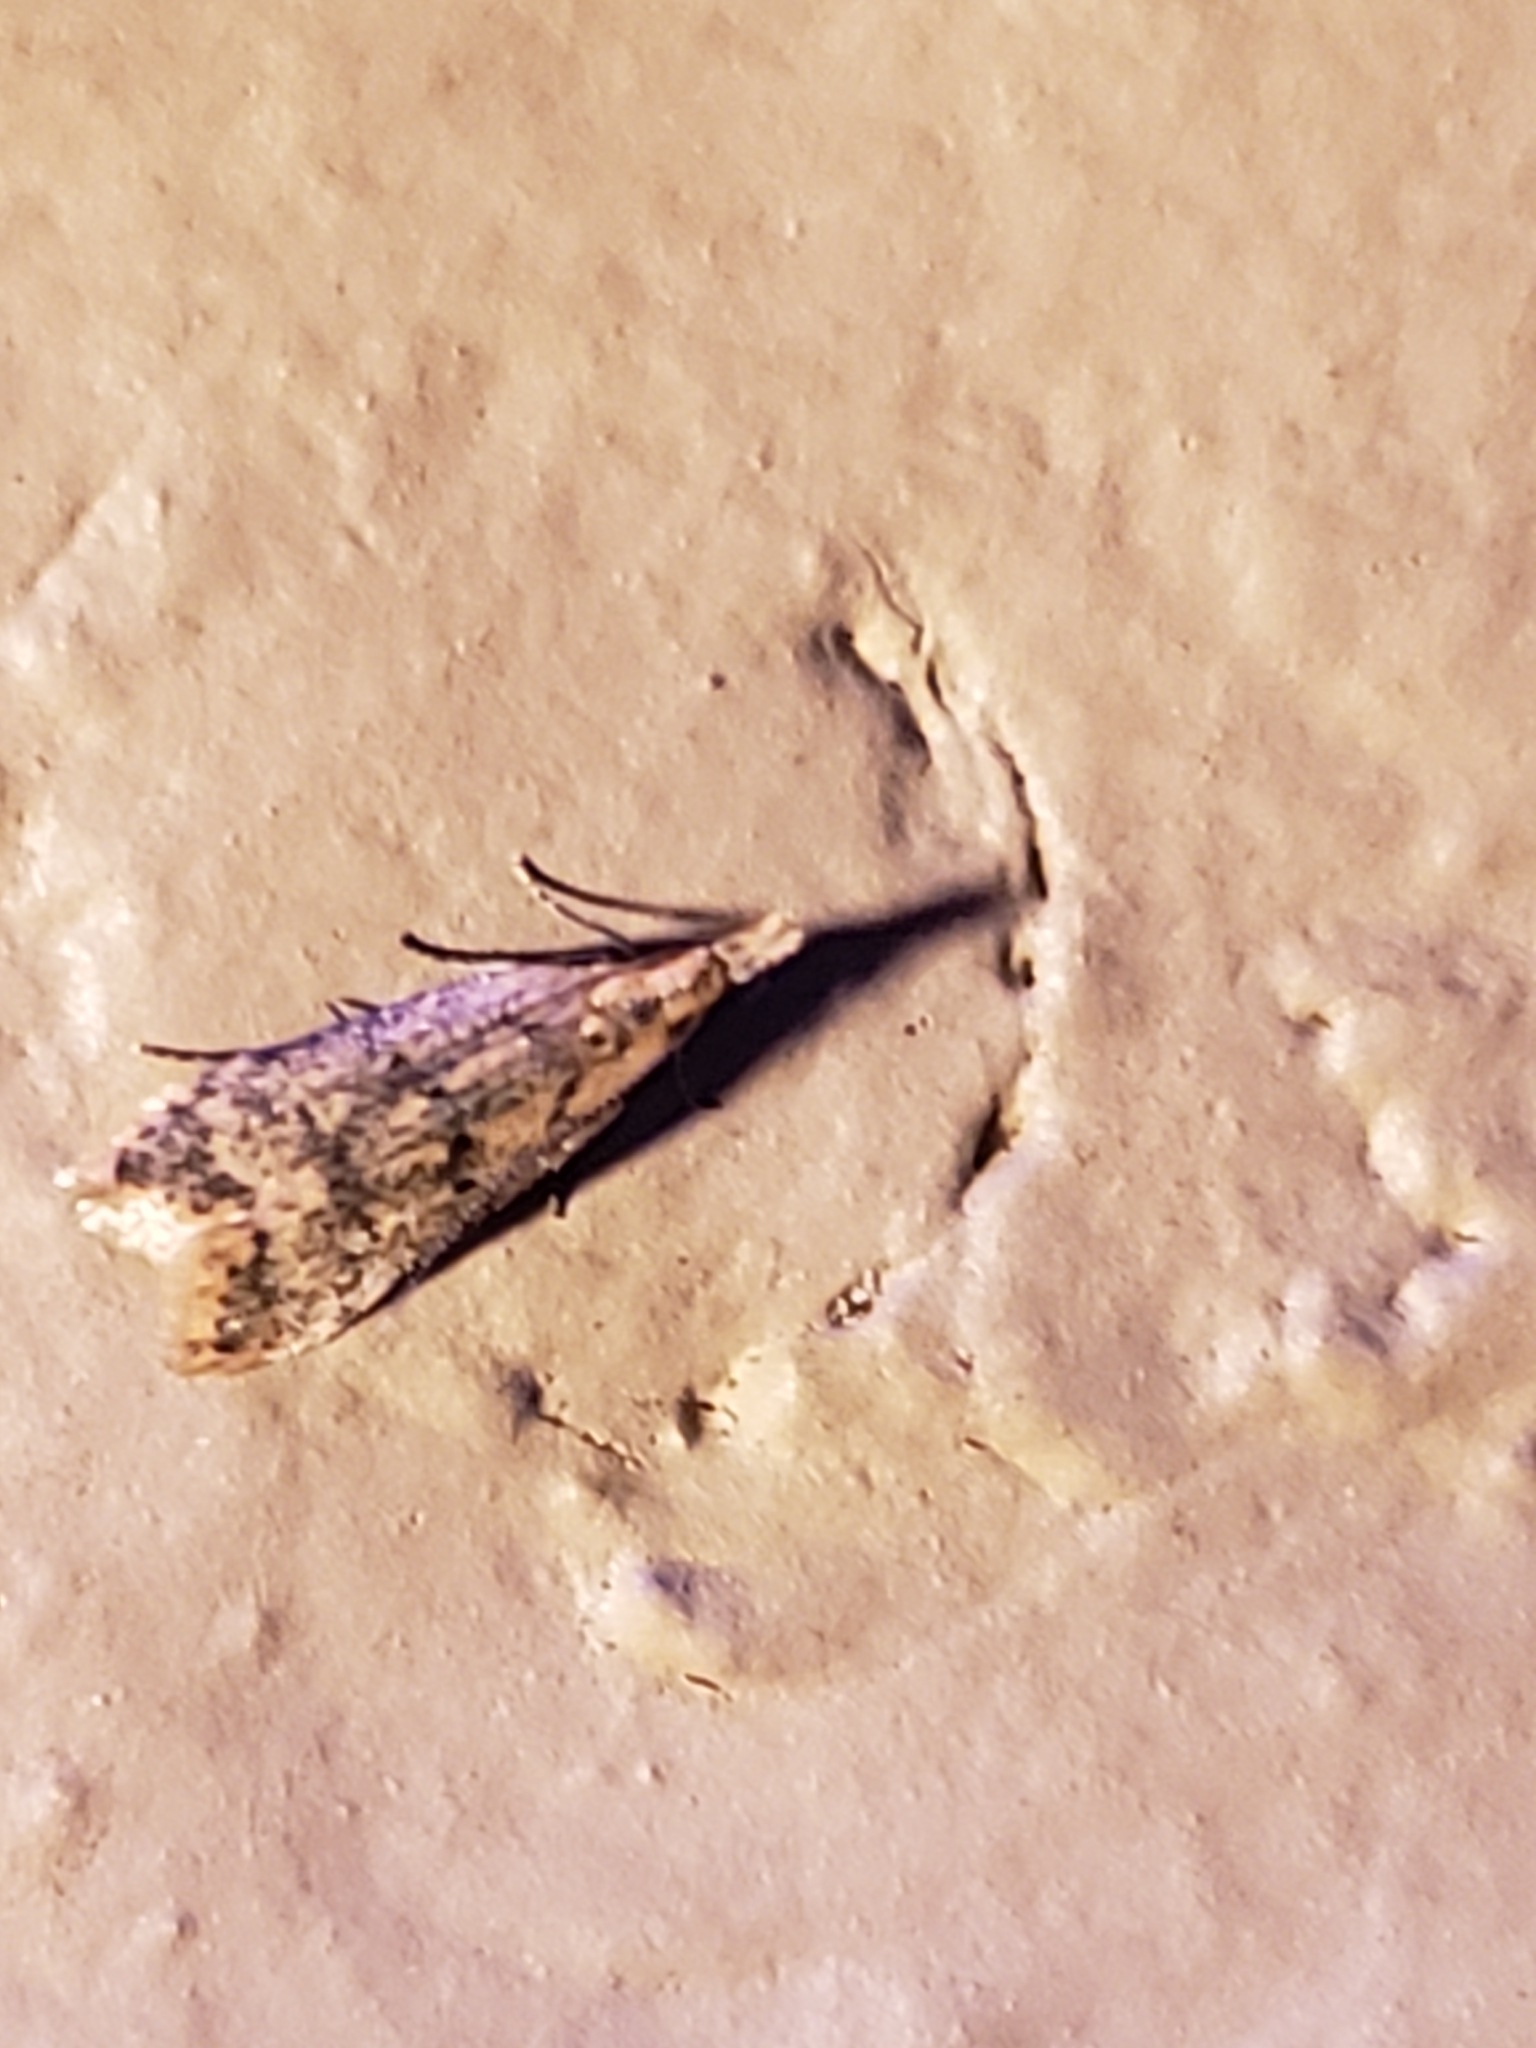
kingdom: Animalia
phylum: Arthropoda
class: Insecta
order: Lepidoptera
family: Gelechiidae
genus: Dichomeris
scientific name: Dichomeris punctipennella
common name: Many-spotted dichomeris moth
